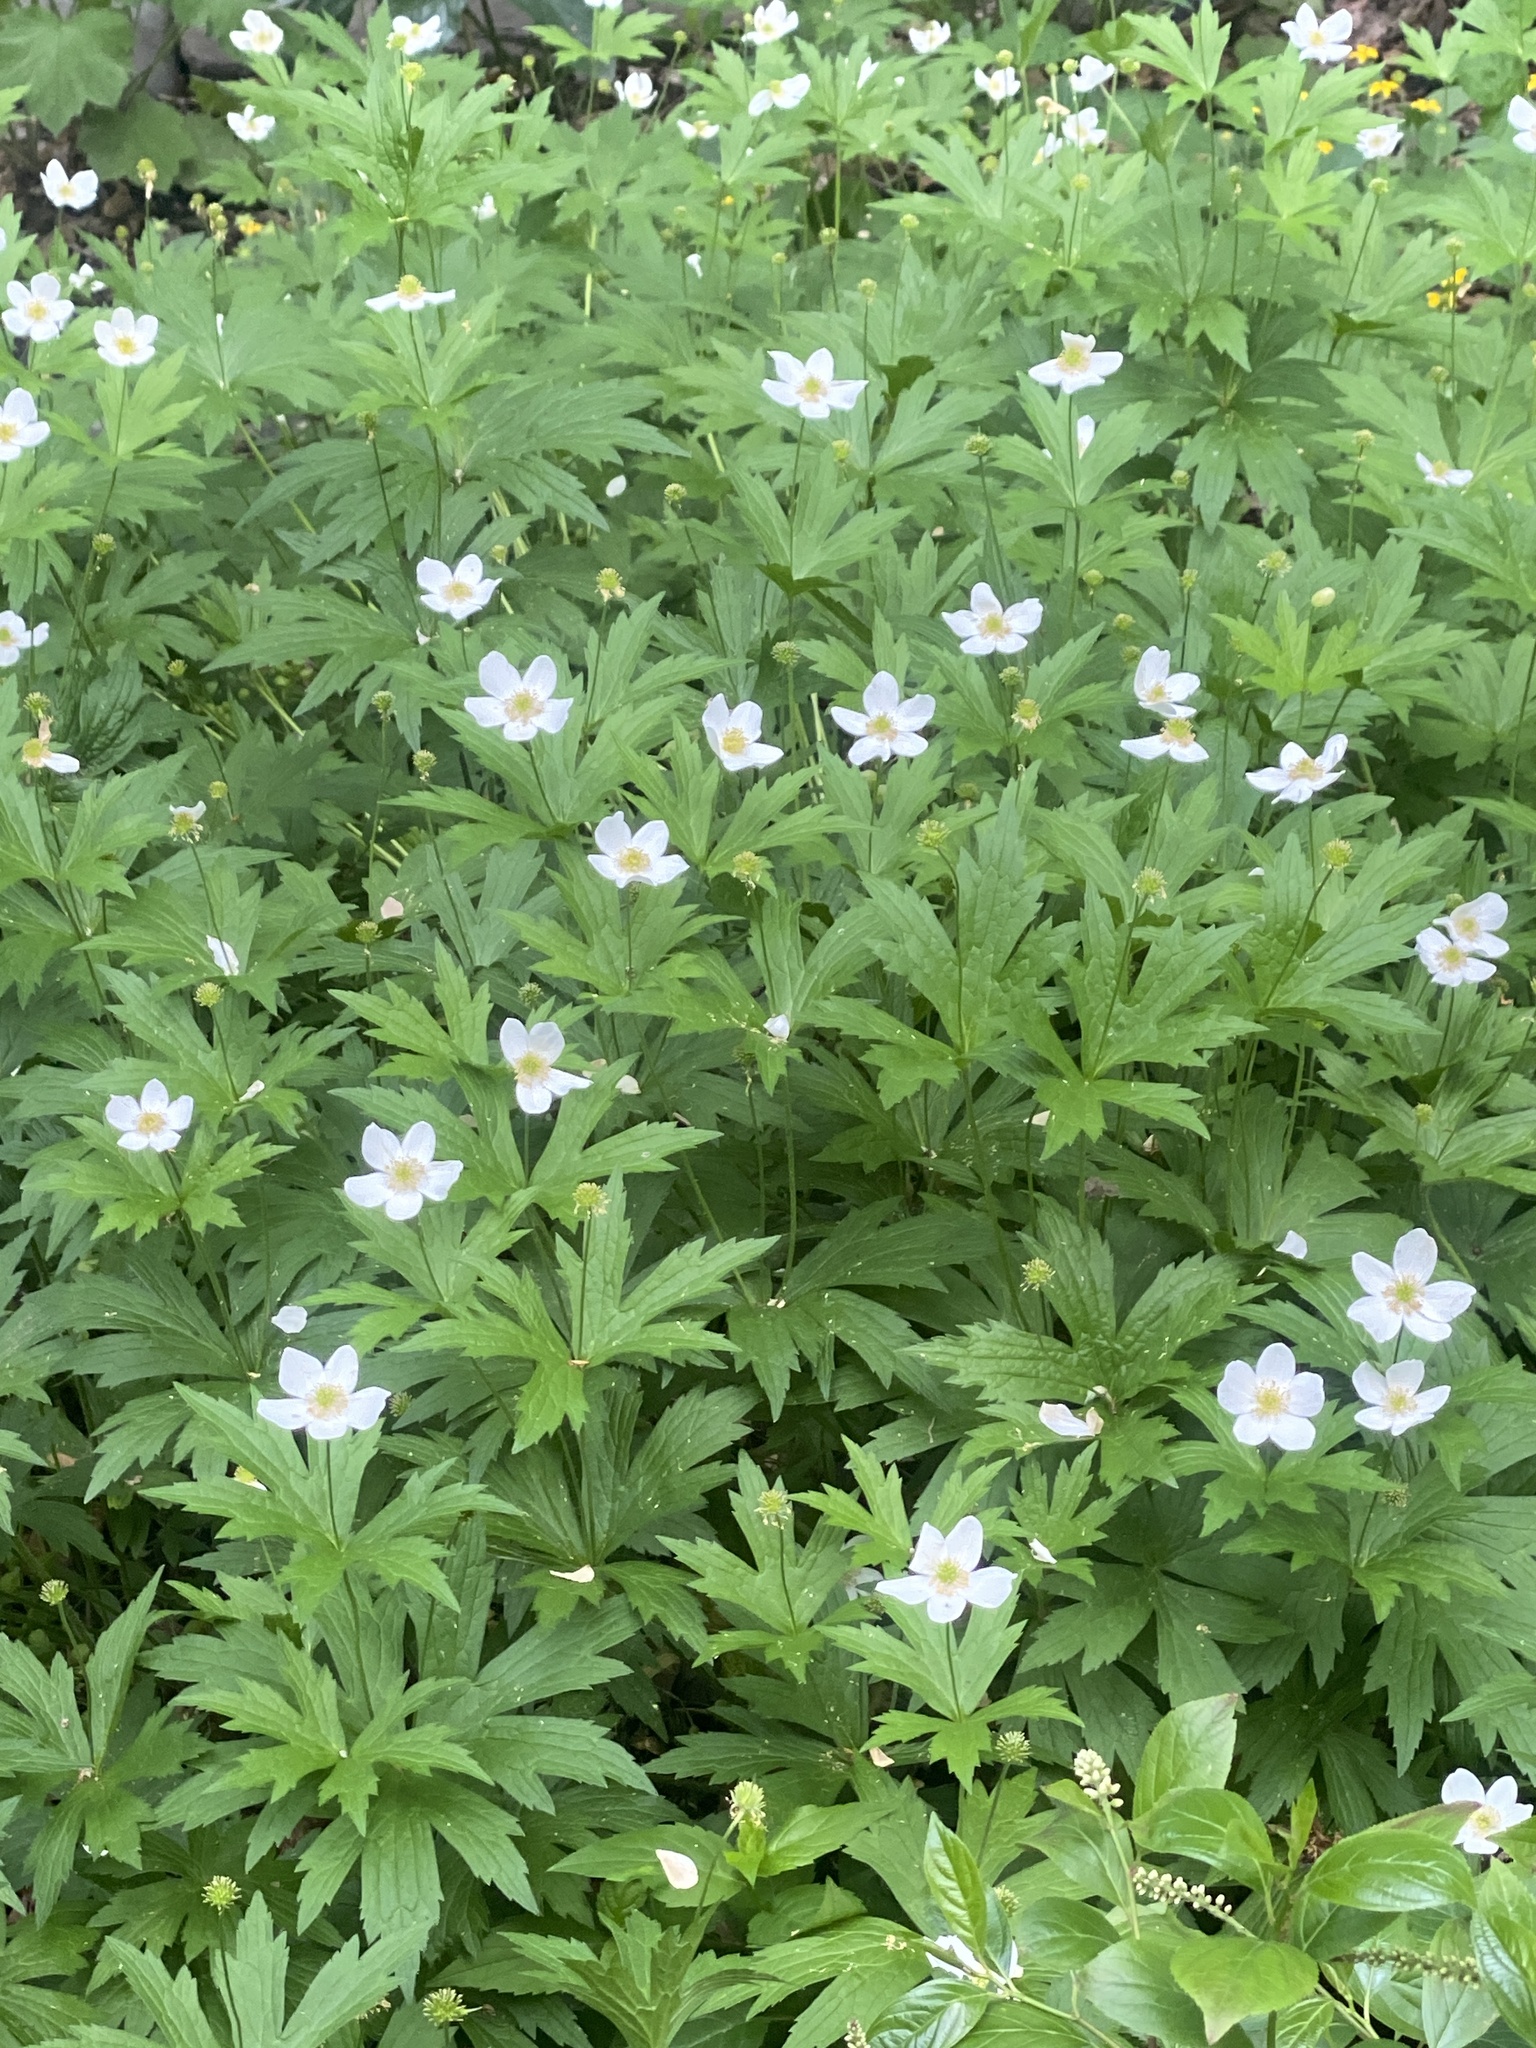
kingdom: Plantae
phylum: Tracheophyta
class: Magnoliopsida
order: Ranunculales
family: Ranunculaceae
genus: Anemonastrum
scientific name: Anemonastrum canadense
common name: Canada anemone
